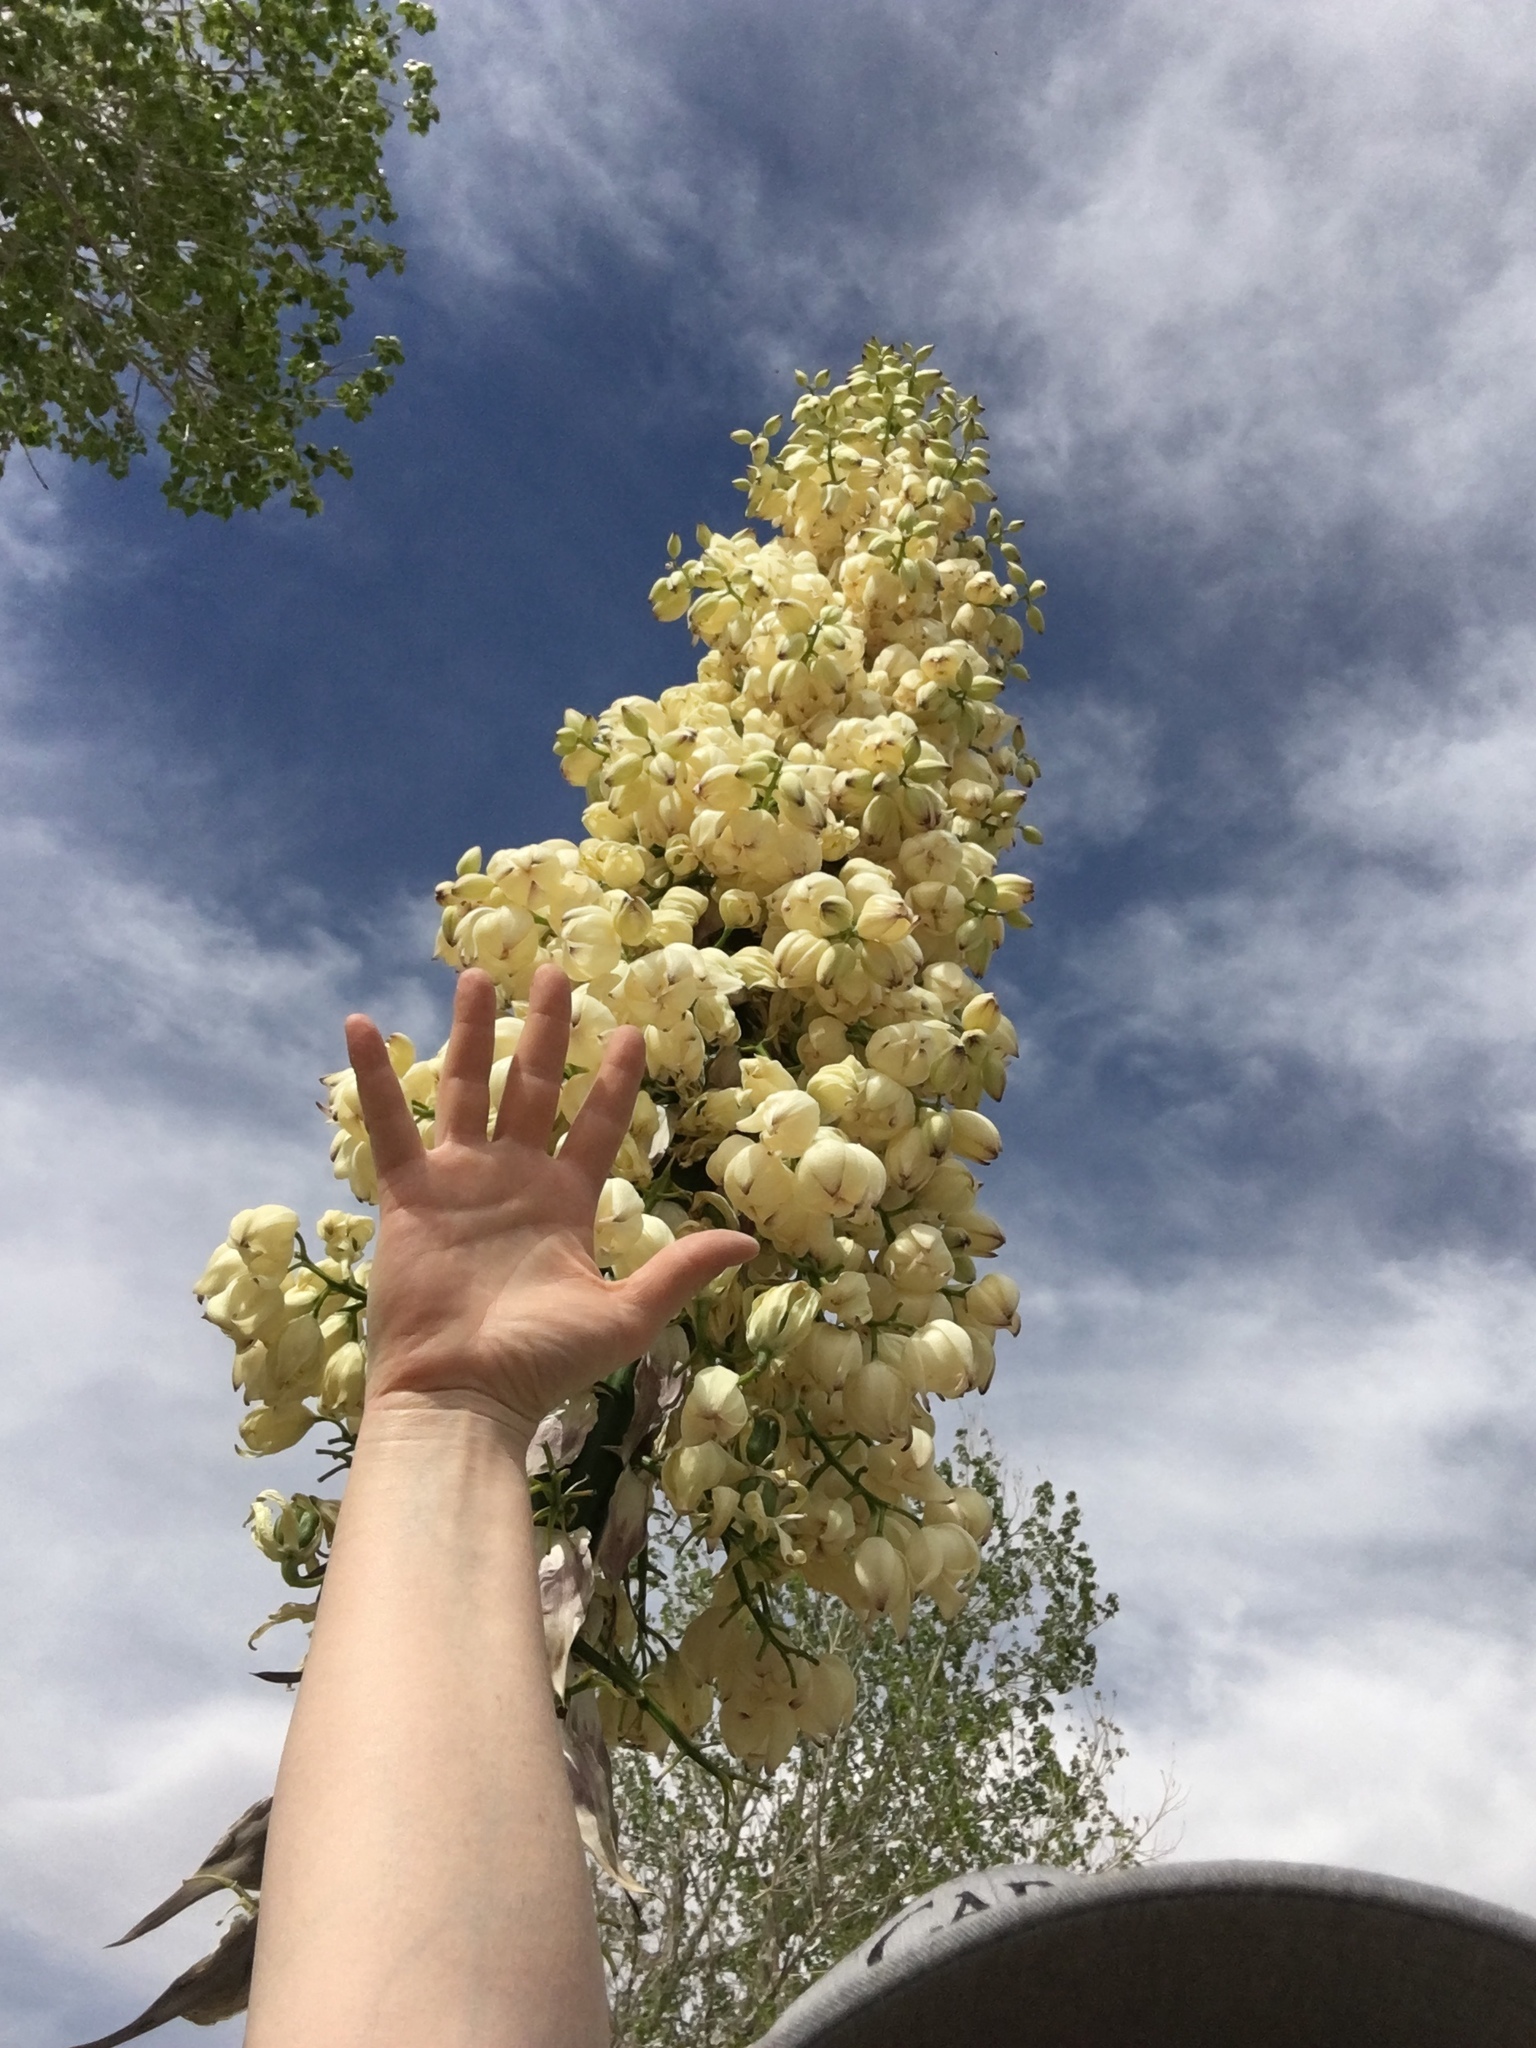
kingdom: Plantae
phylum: Tracheophyta
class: Liliopsida
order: Asparagales
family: Asparagaceae
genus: Hesperoyucca
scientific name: Hesperoyucca whipplei
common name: Our lord's-candle
